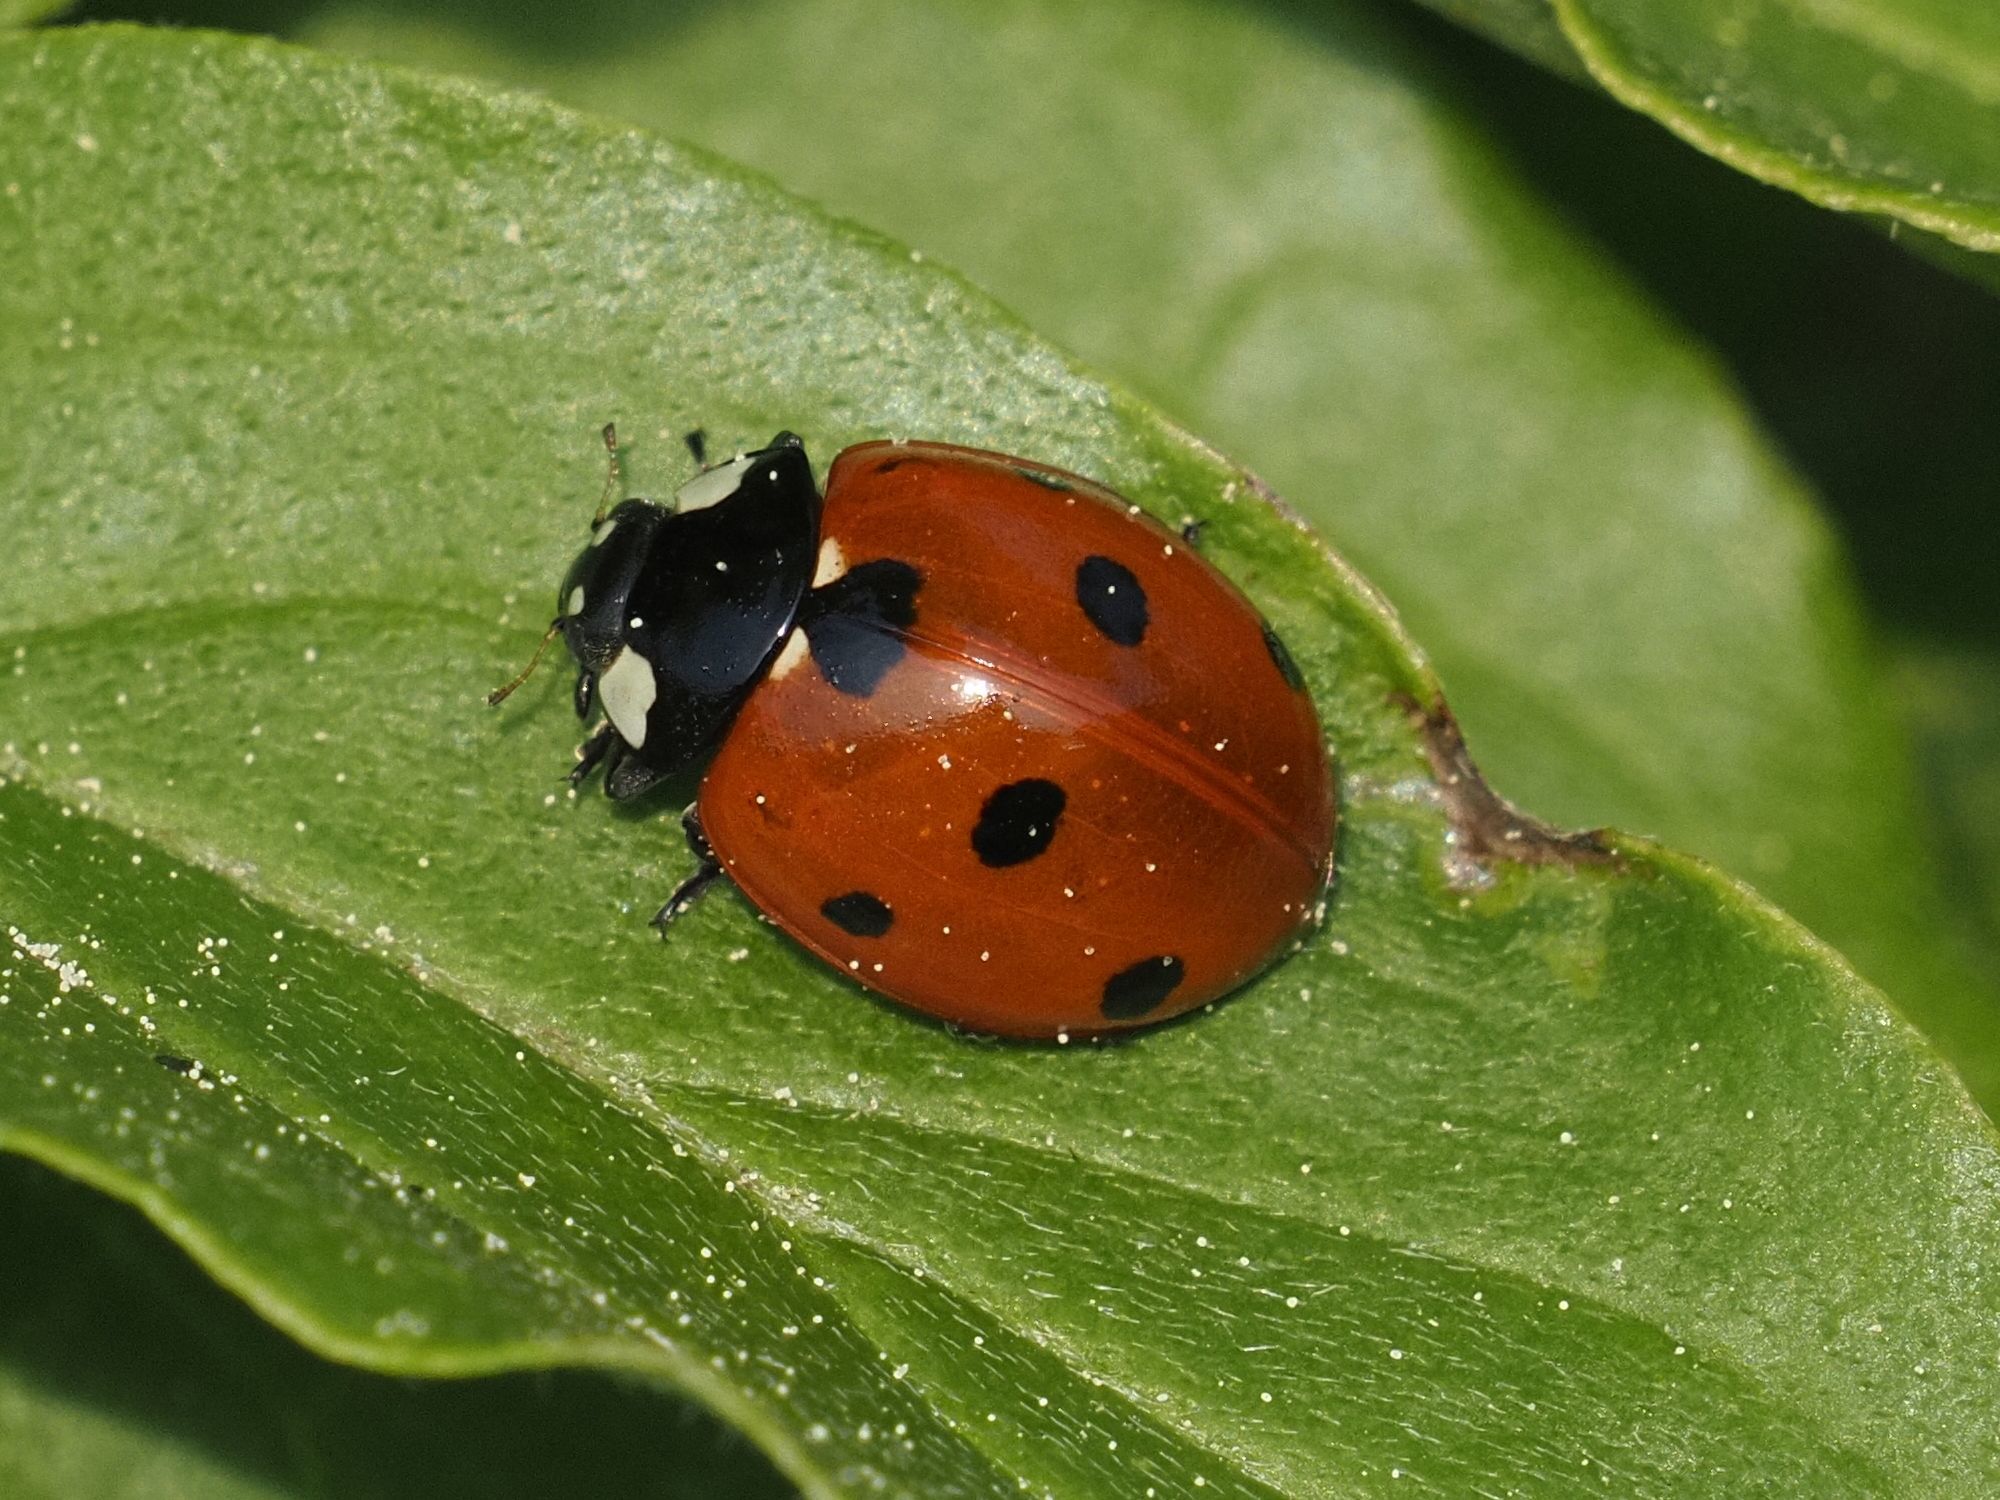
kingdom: Animalia
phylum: Arthropoda
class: Insecta
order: Coleoptera
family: Coccinellidae
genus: Coccinella
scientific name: Coccinella septempunctata
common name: Sevenspotted lady beetle
